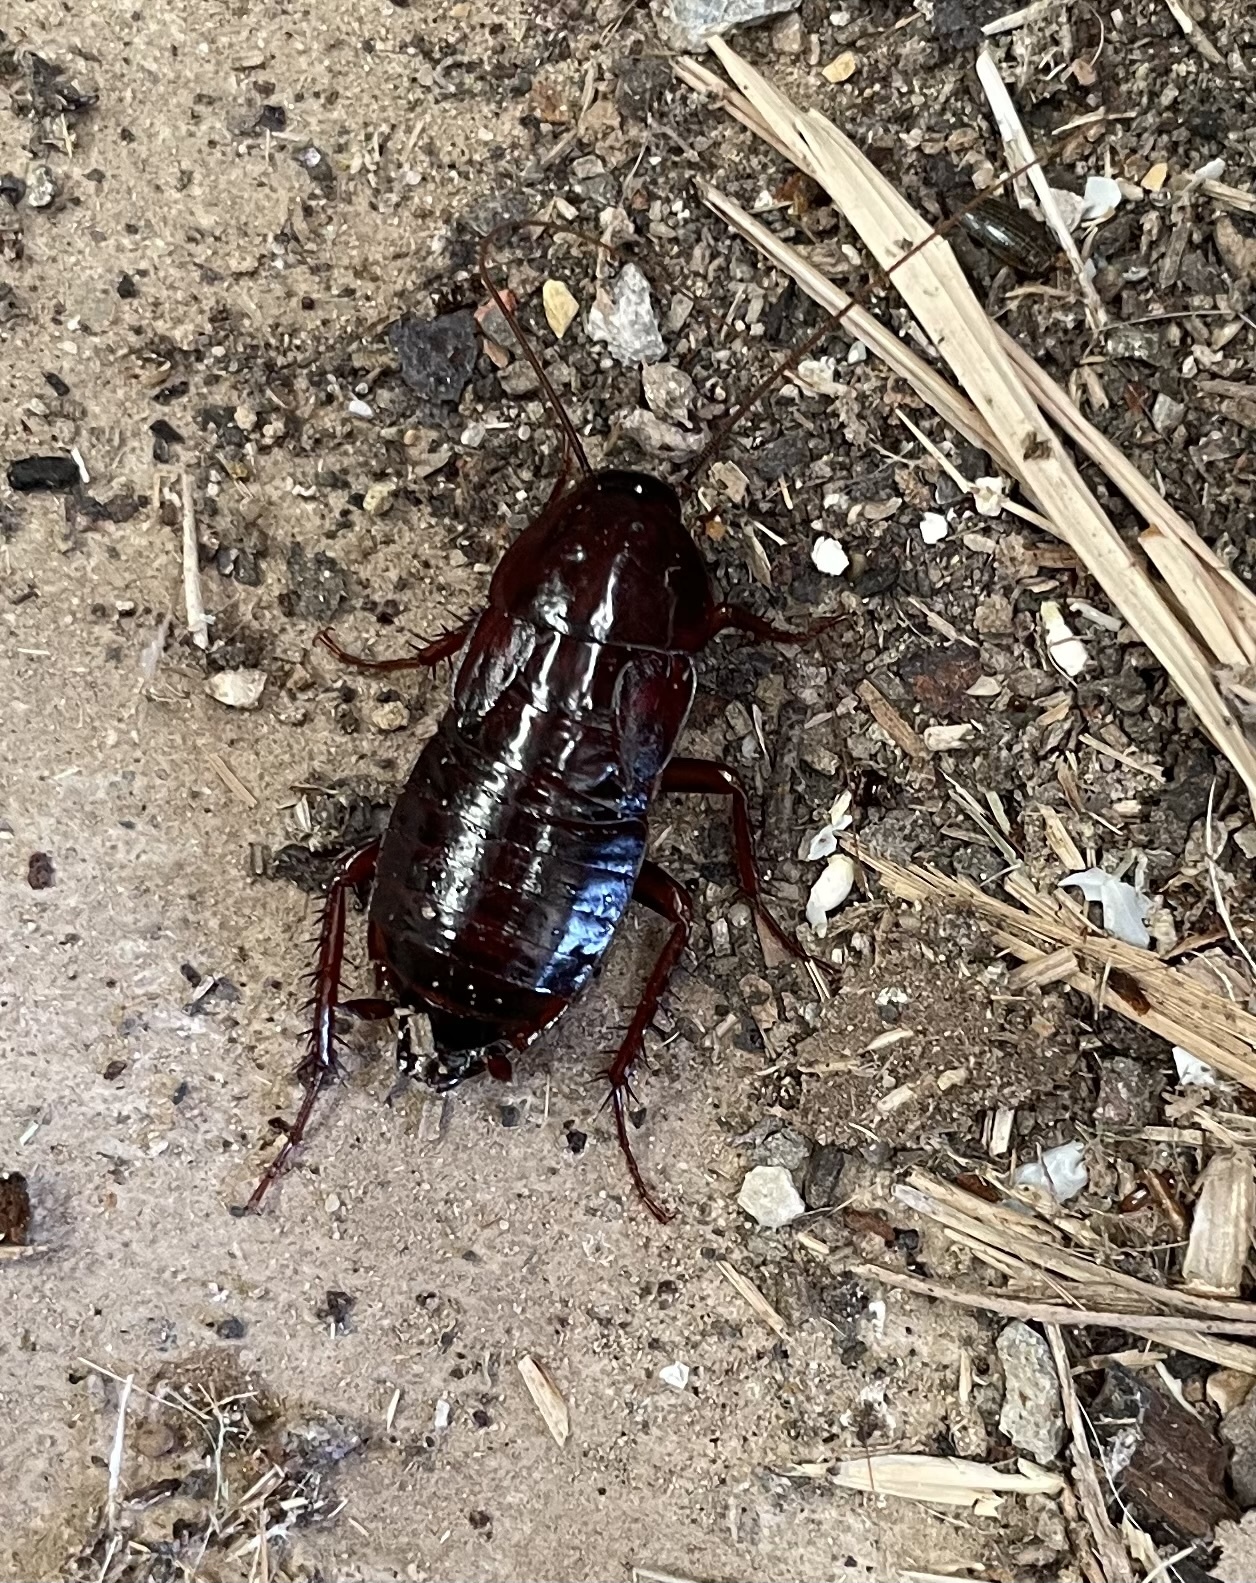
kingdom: Animalia
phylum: Arthropoda
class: Insecta
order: Blattodea
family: Blattidae
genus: Blatta
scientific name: Blatta orientalis
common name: Oriental cockroach
